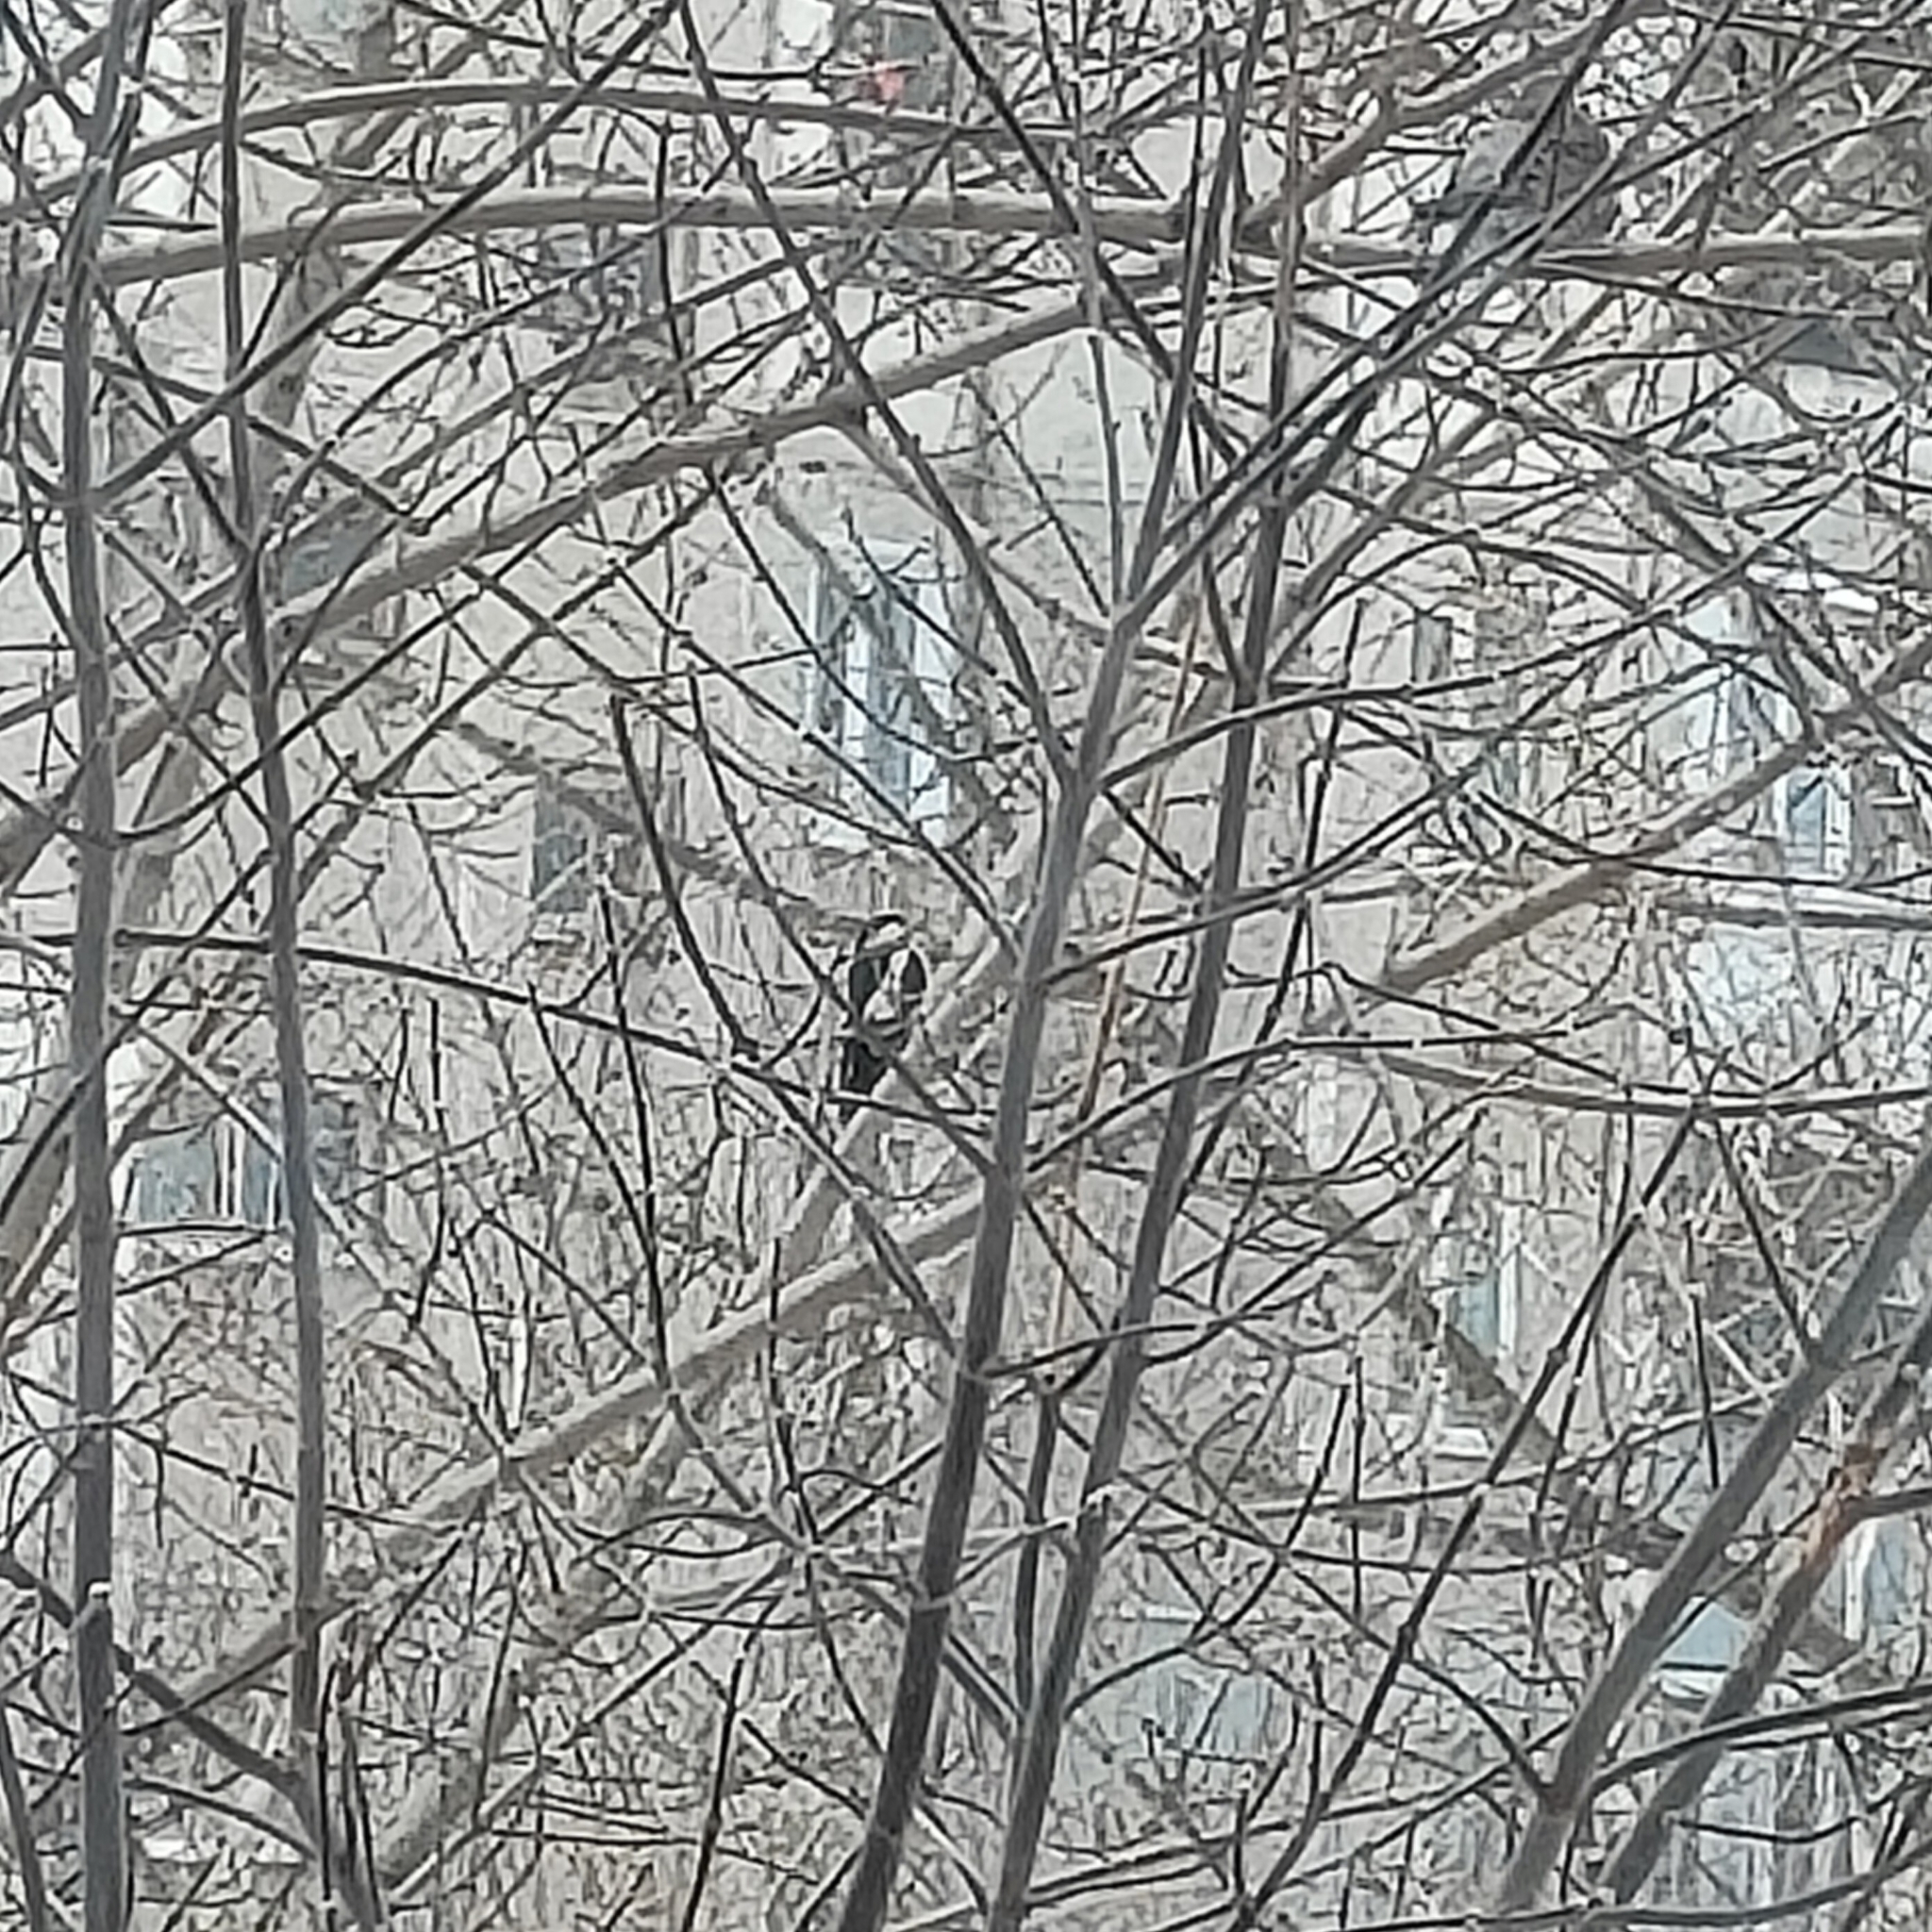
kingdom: Animalia
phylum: Chordata
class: Aves
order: Piciformes
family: Picidae
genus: Dendrocopos
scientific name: Dendrocopos major
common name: Great spotted woodpecker
